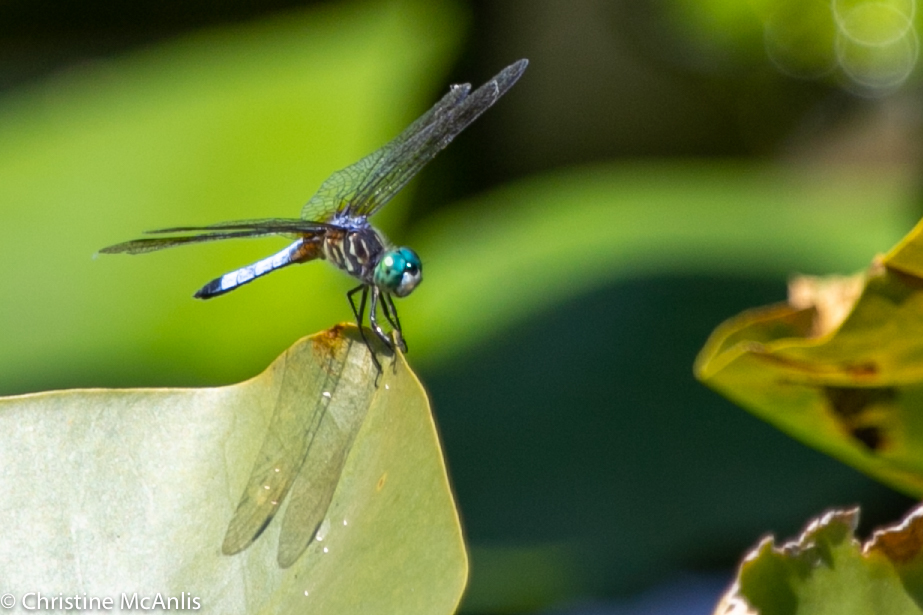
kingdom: Animalia
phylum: Arthropoda
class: Insecta
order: Odonata
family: Libellulidae
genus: Pachydiplax
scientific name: Pachydiplax longipennis
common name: Blue dasher
